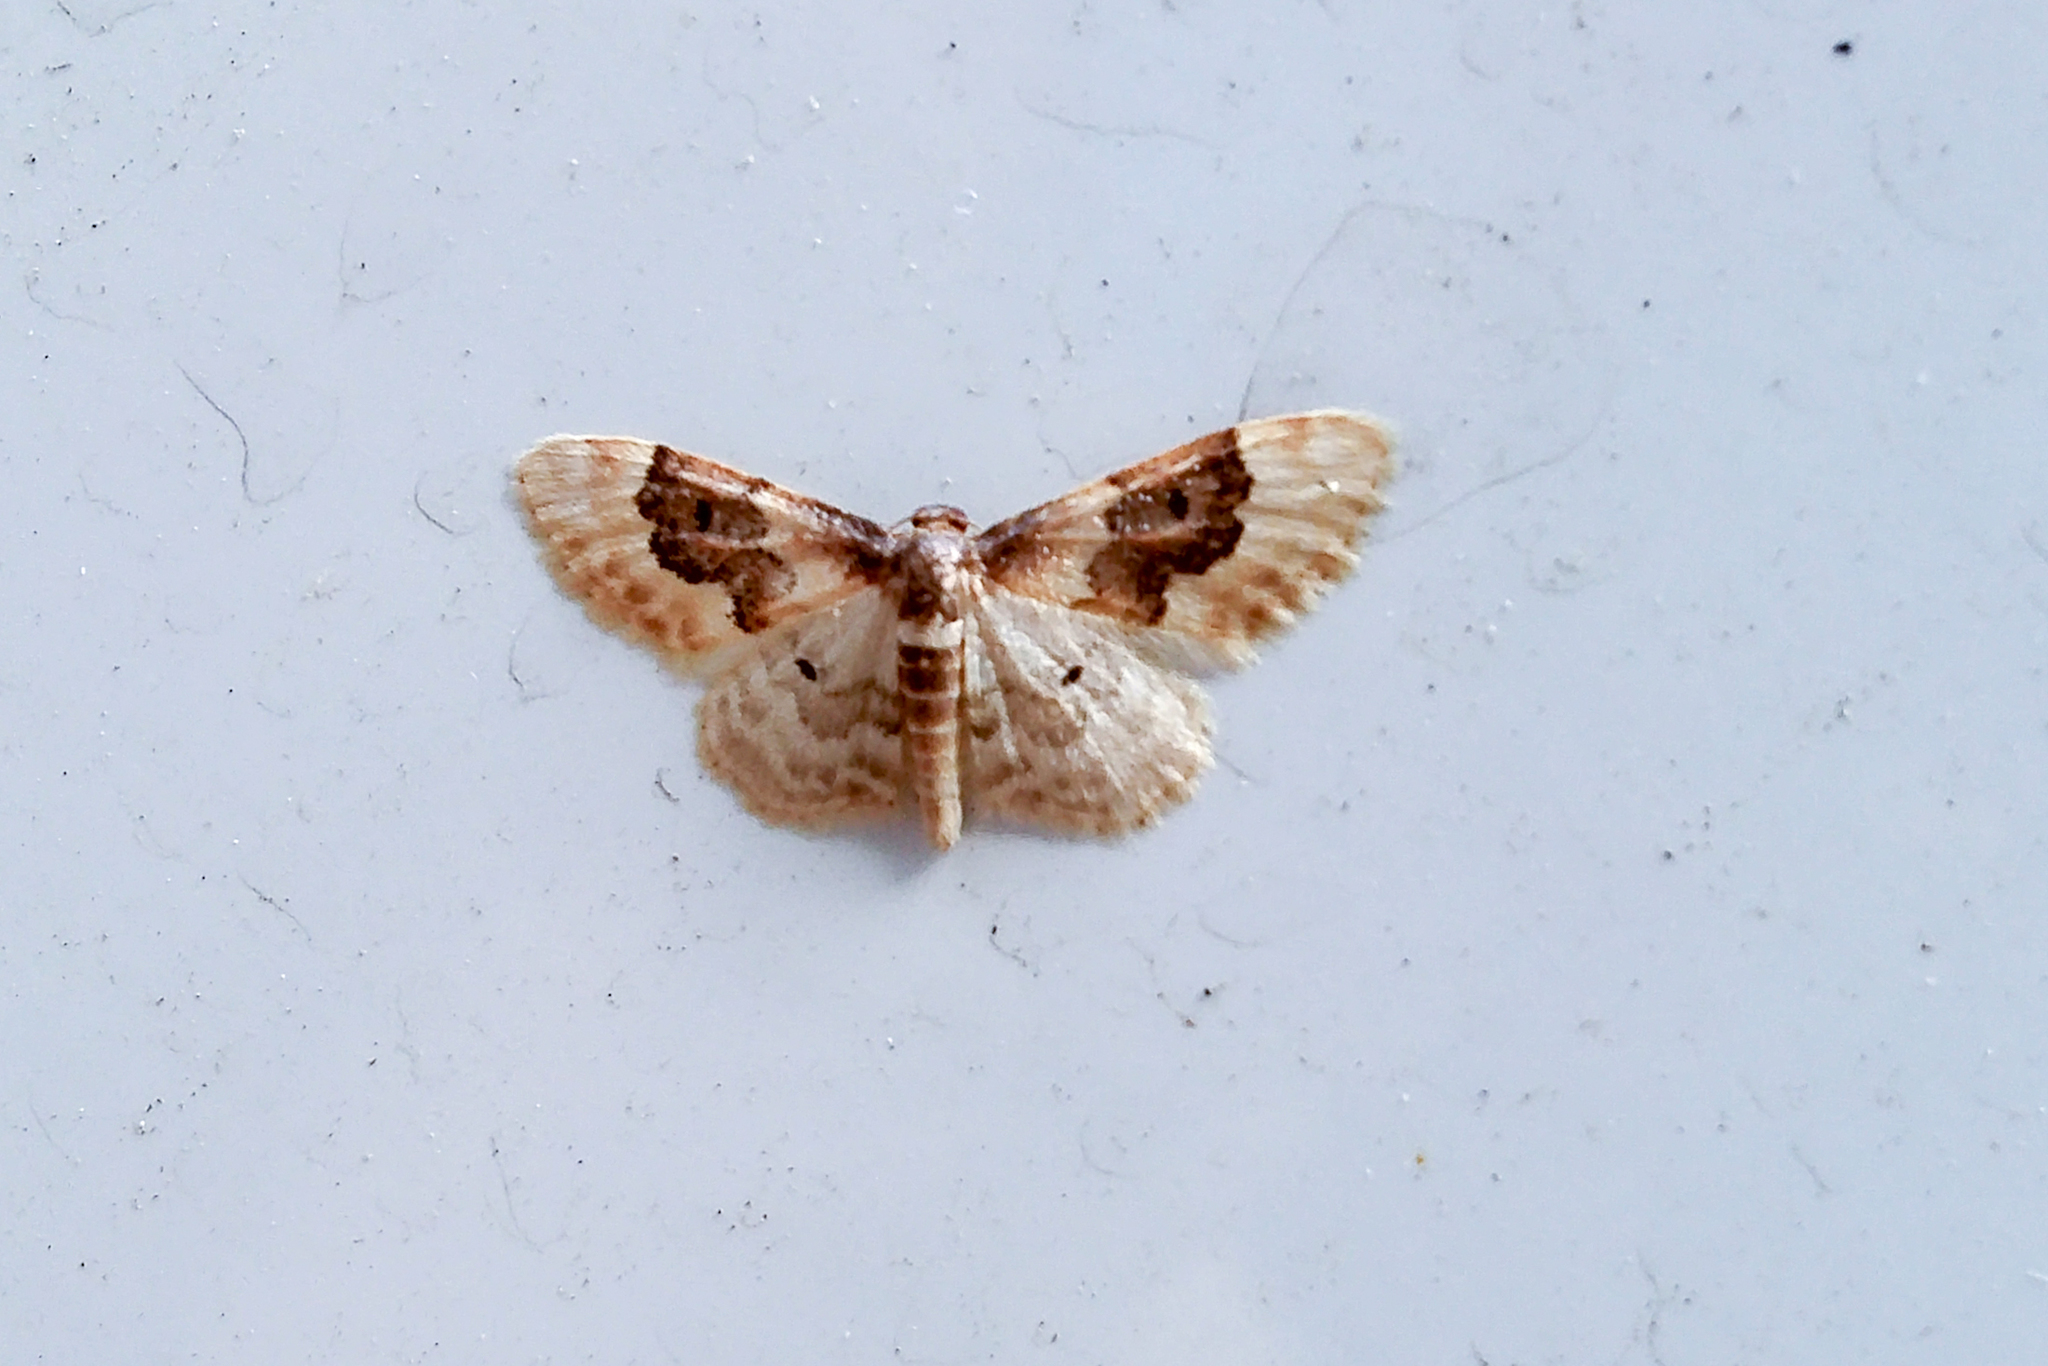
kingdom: Animalia
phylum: Arthropoda
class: Insecta
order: Lepidoptera
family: Geometridae
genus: Idaea
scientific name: Idaea rusticata
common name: Least carpet
